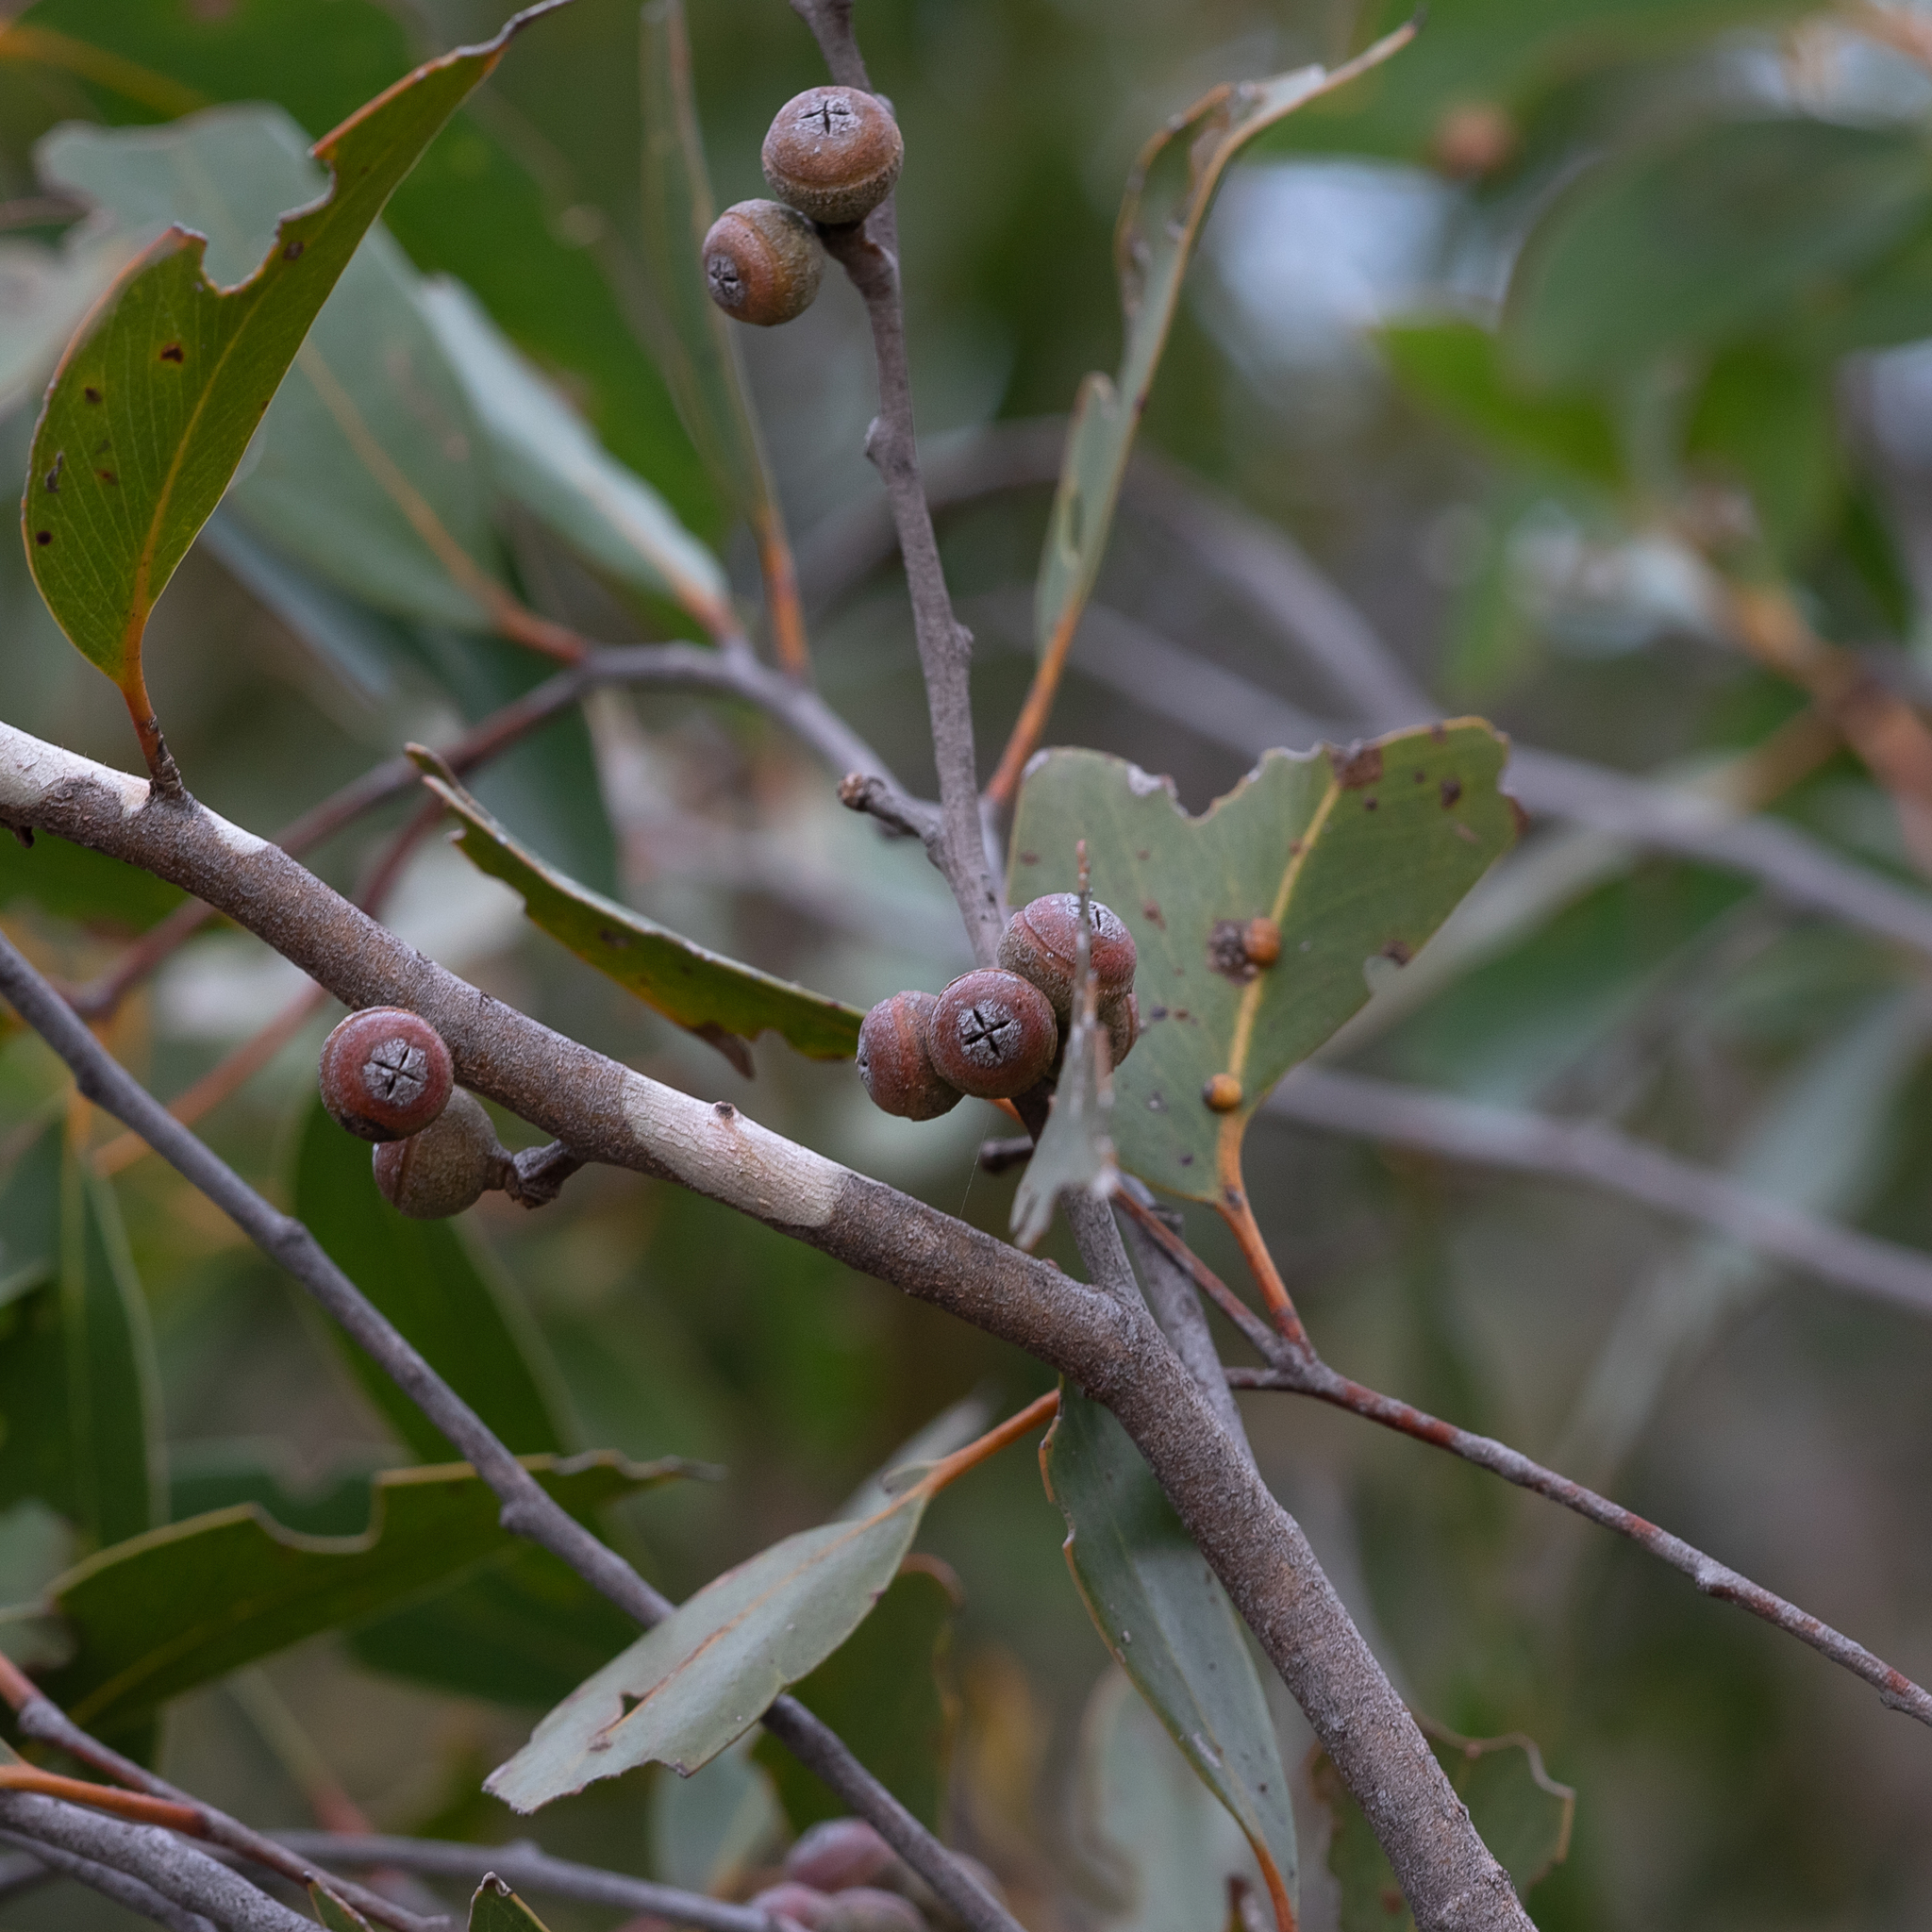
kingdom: Plantae
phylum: Tracheophyta
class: Magnoliopsida
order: Myrtales
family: Myrtaceae
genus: Eucalyptus
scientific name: Eucalyptus baxteri
